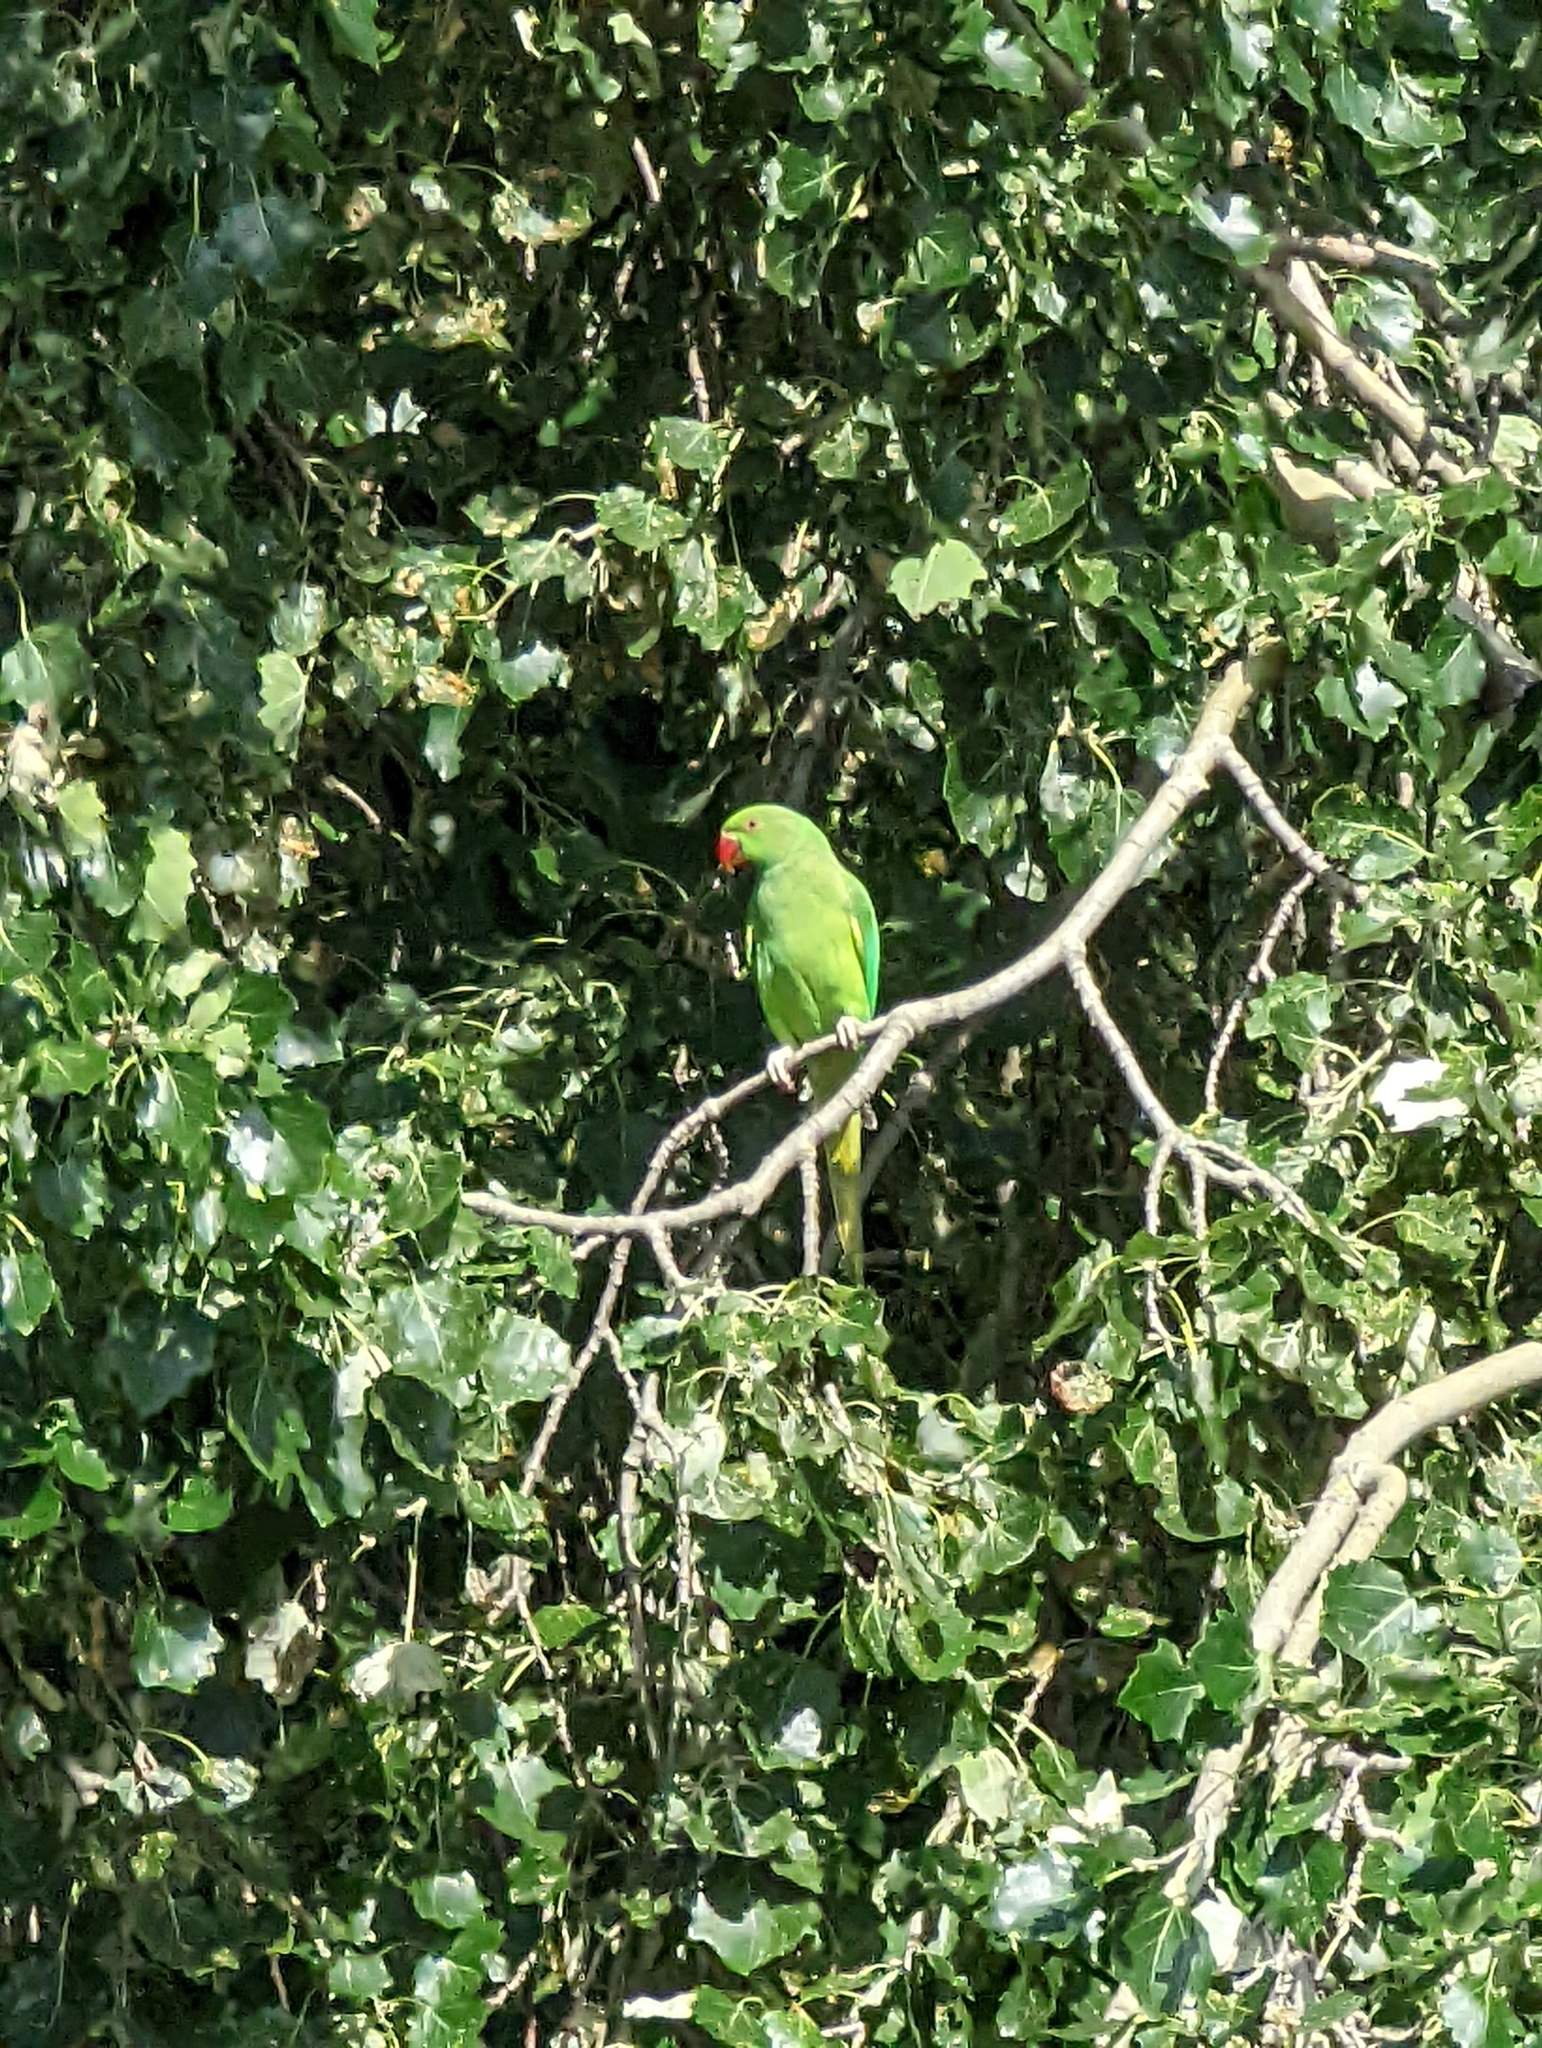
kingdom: Animalia
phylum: Chordata
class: Aves
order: Psittaciformes
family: Psittacidae
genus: Psittacula
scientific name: Psittacula krameri
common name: Rose-ringed parakeet
